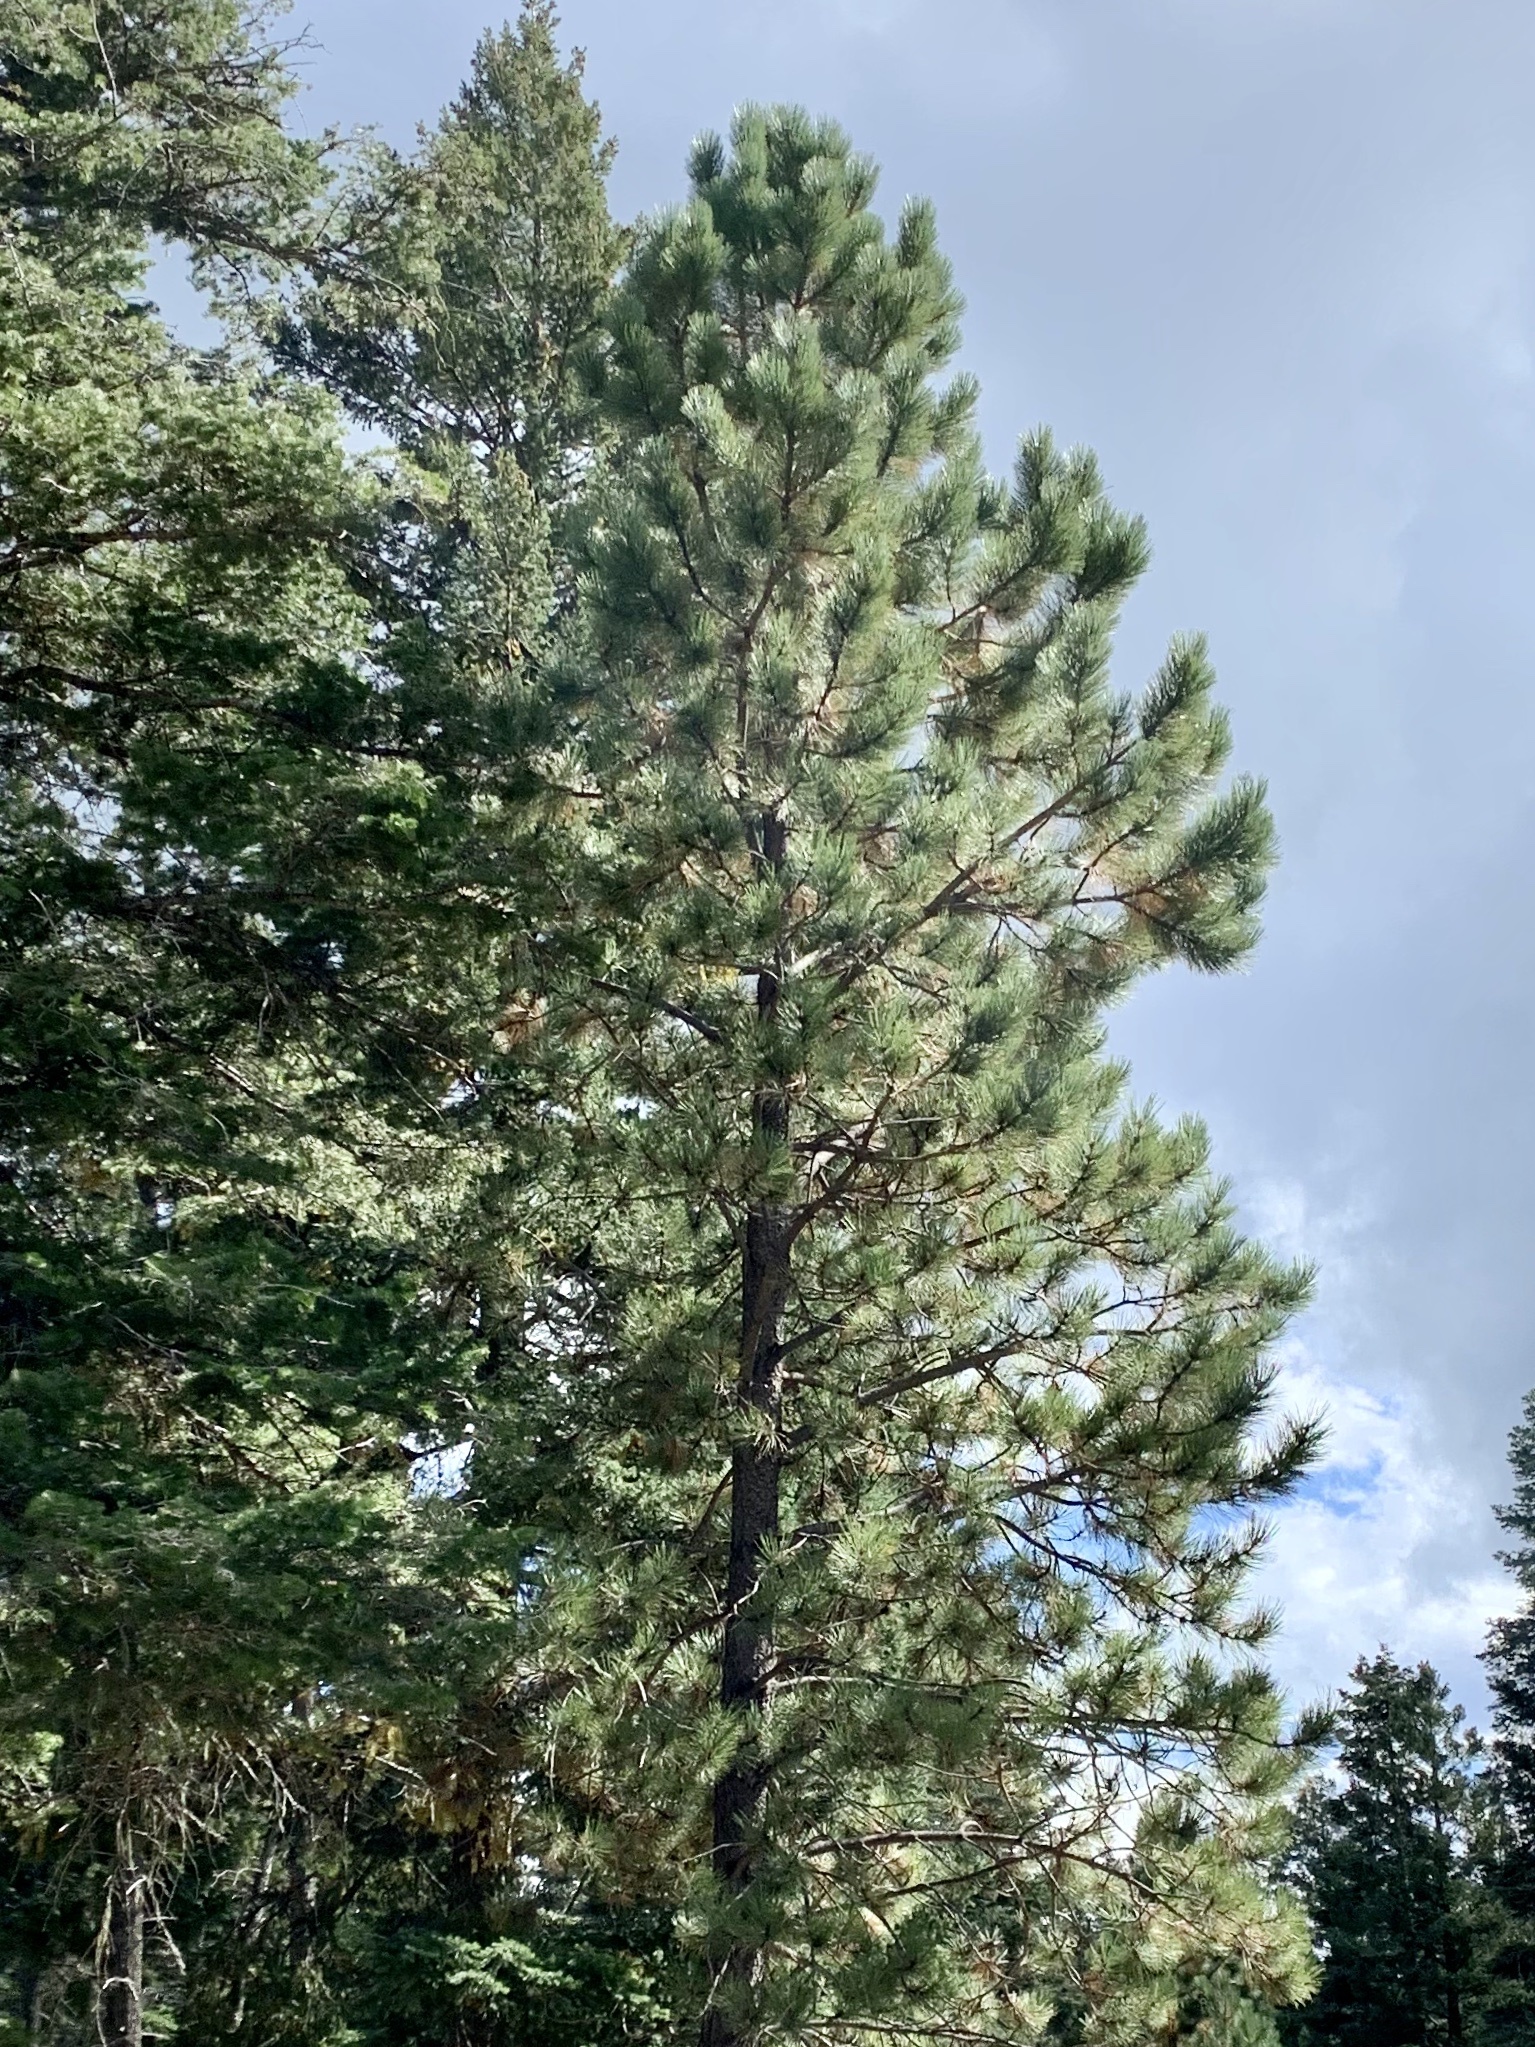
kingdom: Plantae
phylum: Tracheophyta
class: Pinopsida
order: Pinales
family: Pinaceae
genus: Pinus
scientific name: Pinus ponderosa
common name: Western yellow-pine
